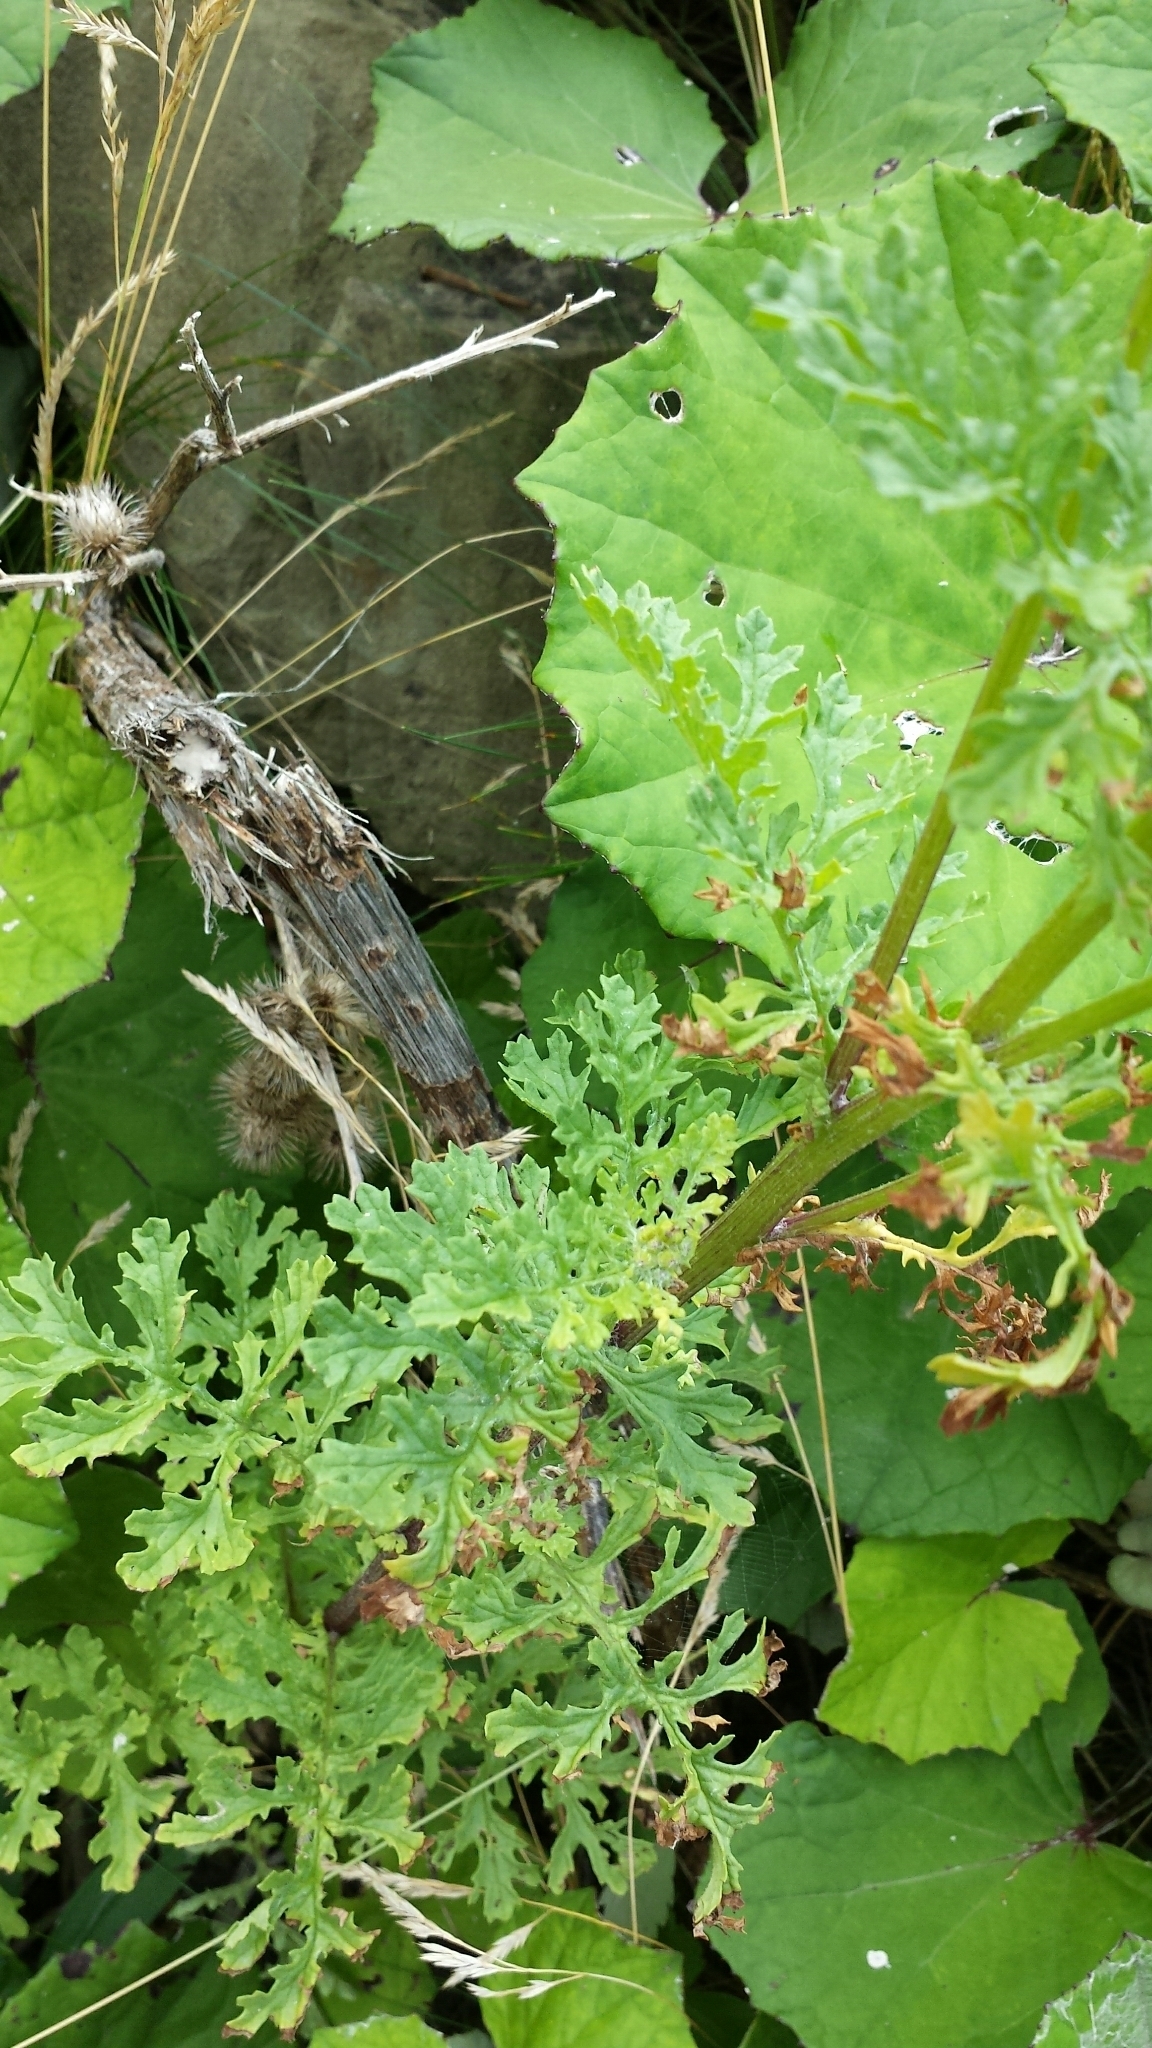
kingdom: Plantae
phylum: Tracheophyta
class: Magnoliopsida
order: Asterales
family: Asteraceae
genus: Jacobaea
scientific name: Jacobaea vulgaris
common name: Stinking willie
